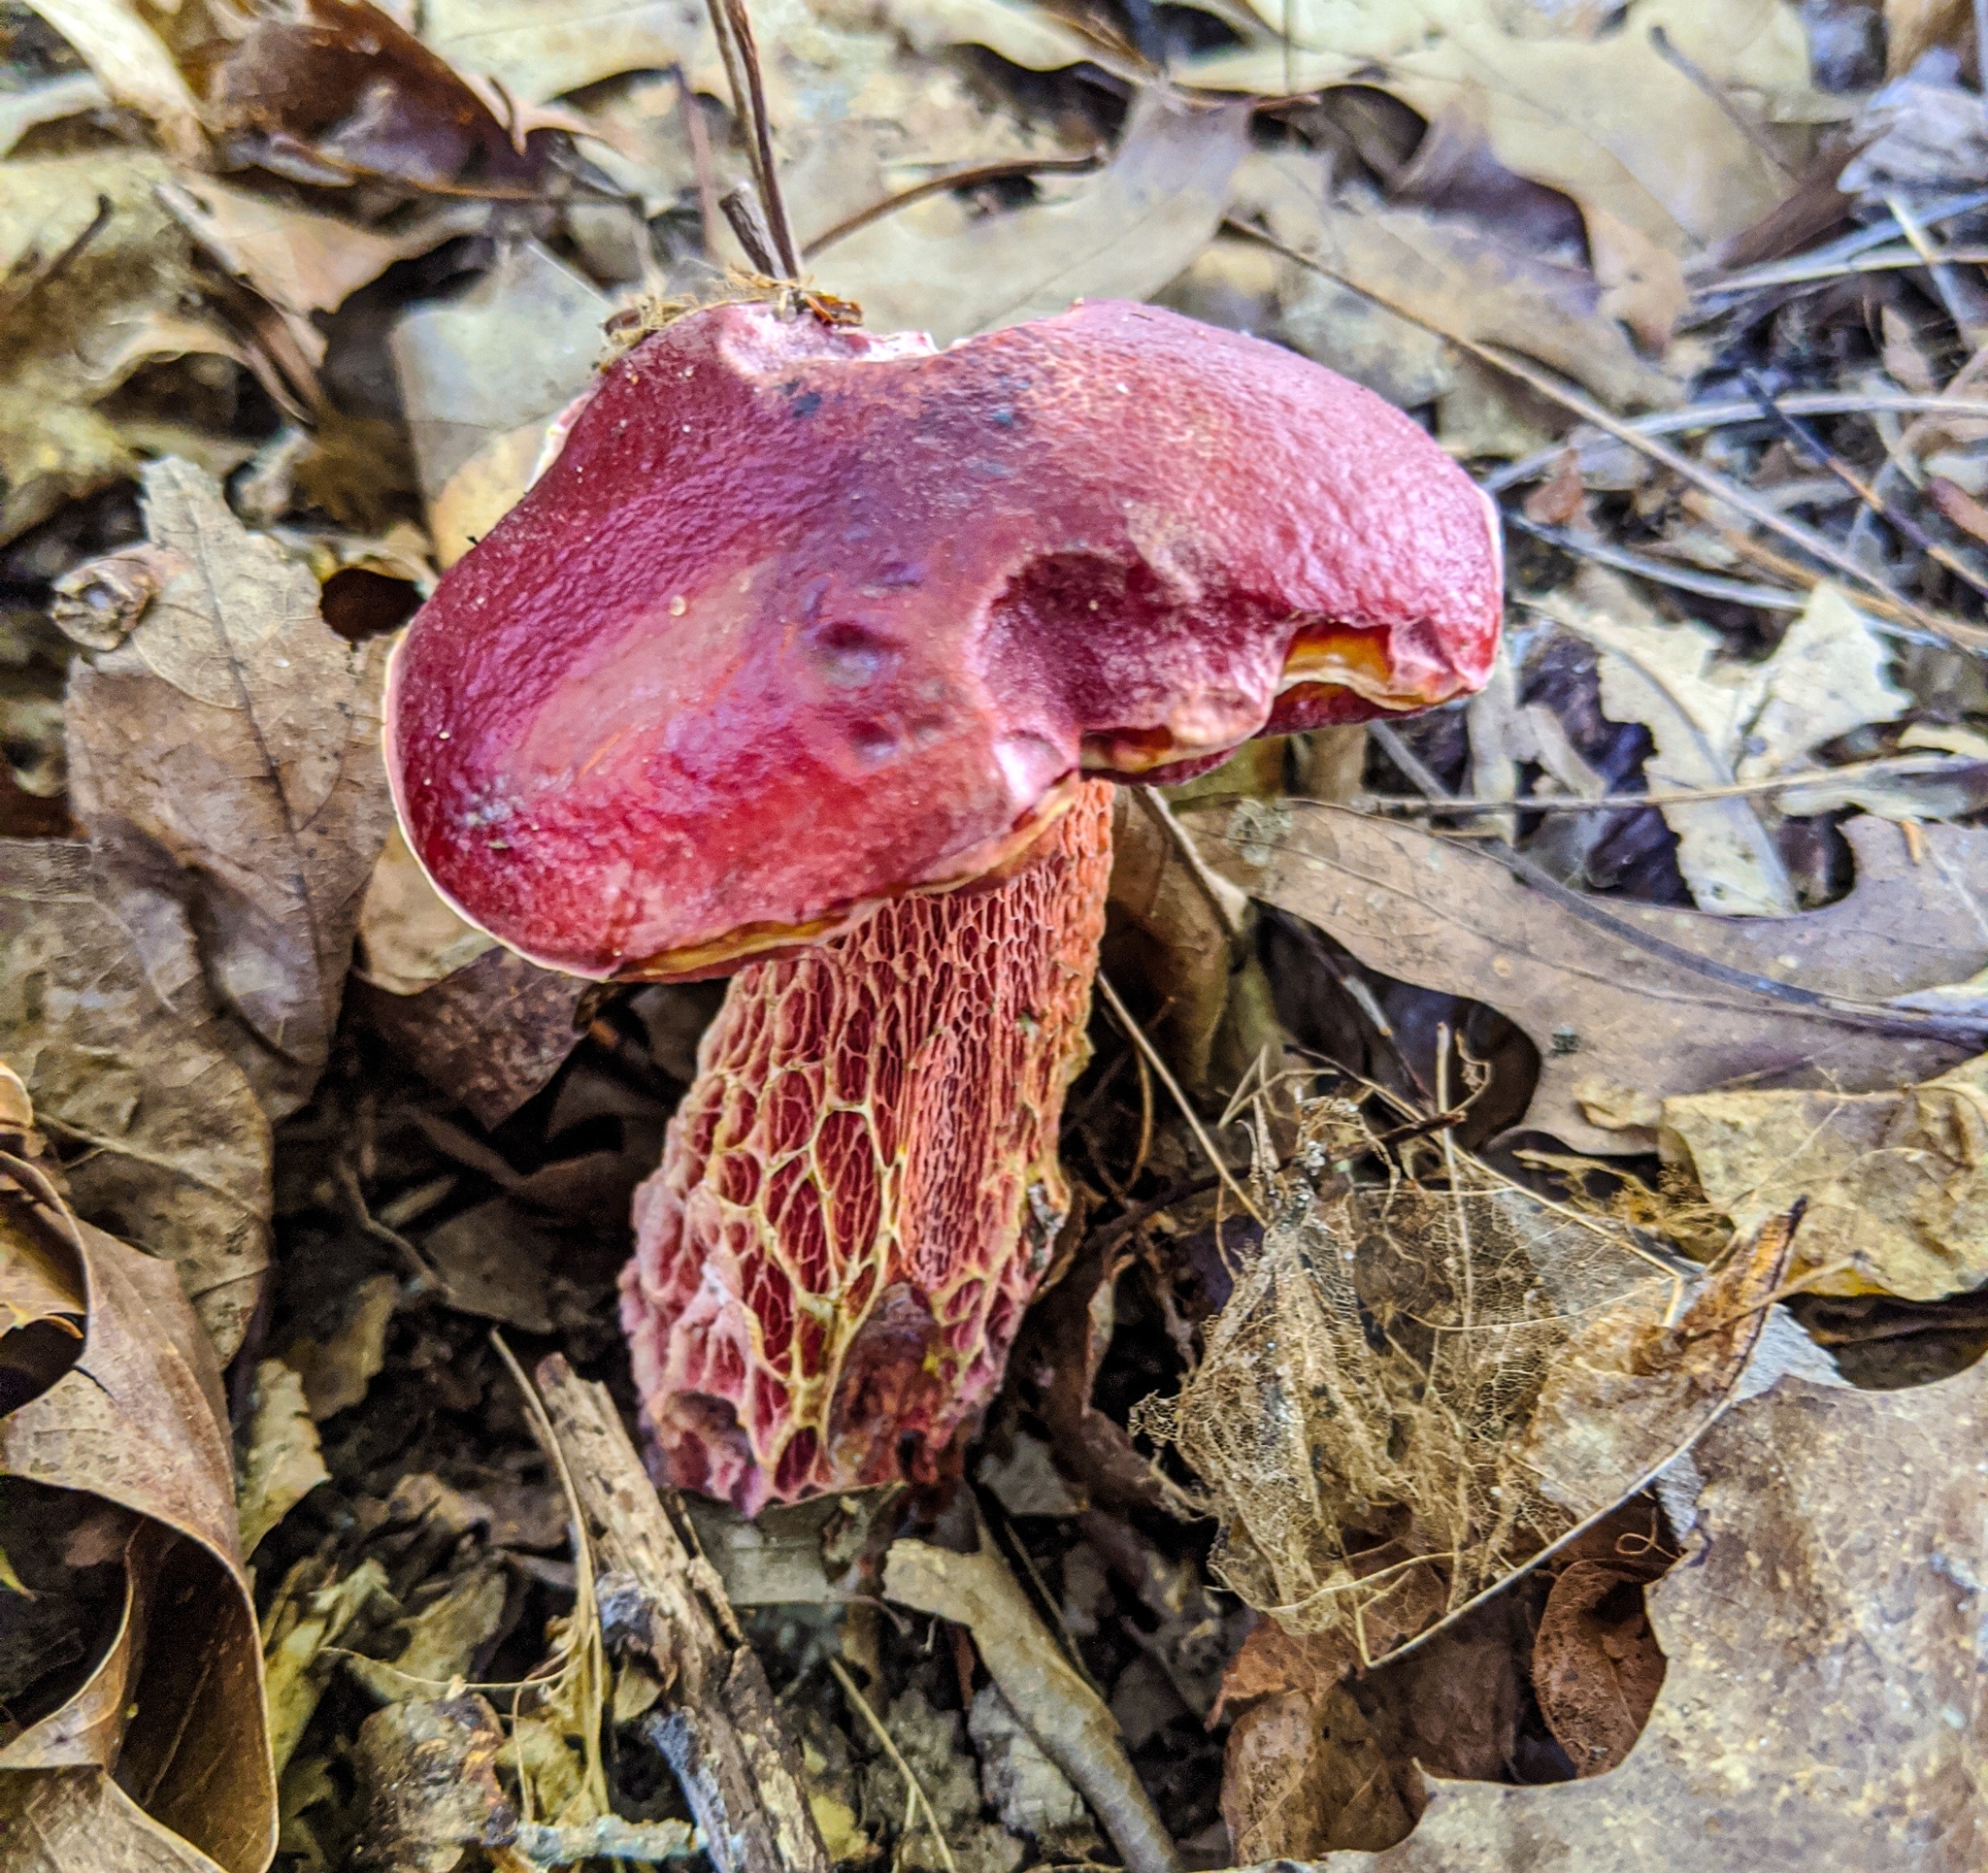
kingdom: Fungi
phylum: Basidiomycota
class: Agaricomycetes
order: Boletales
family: Boletaceae
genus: Butyriboletus
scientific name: Butyriboletus frostii
